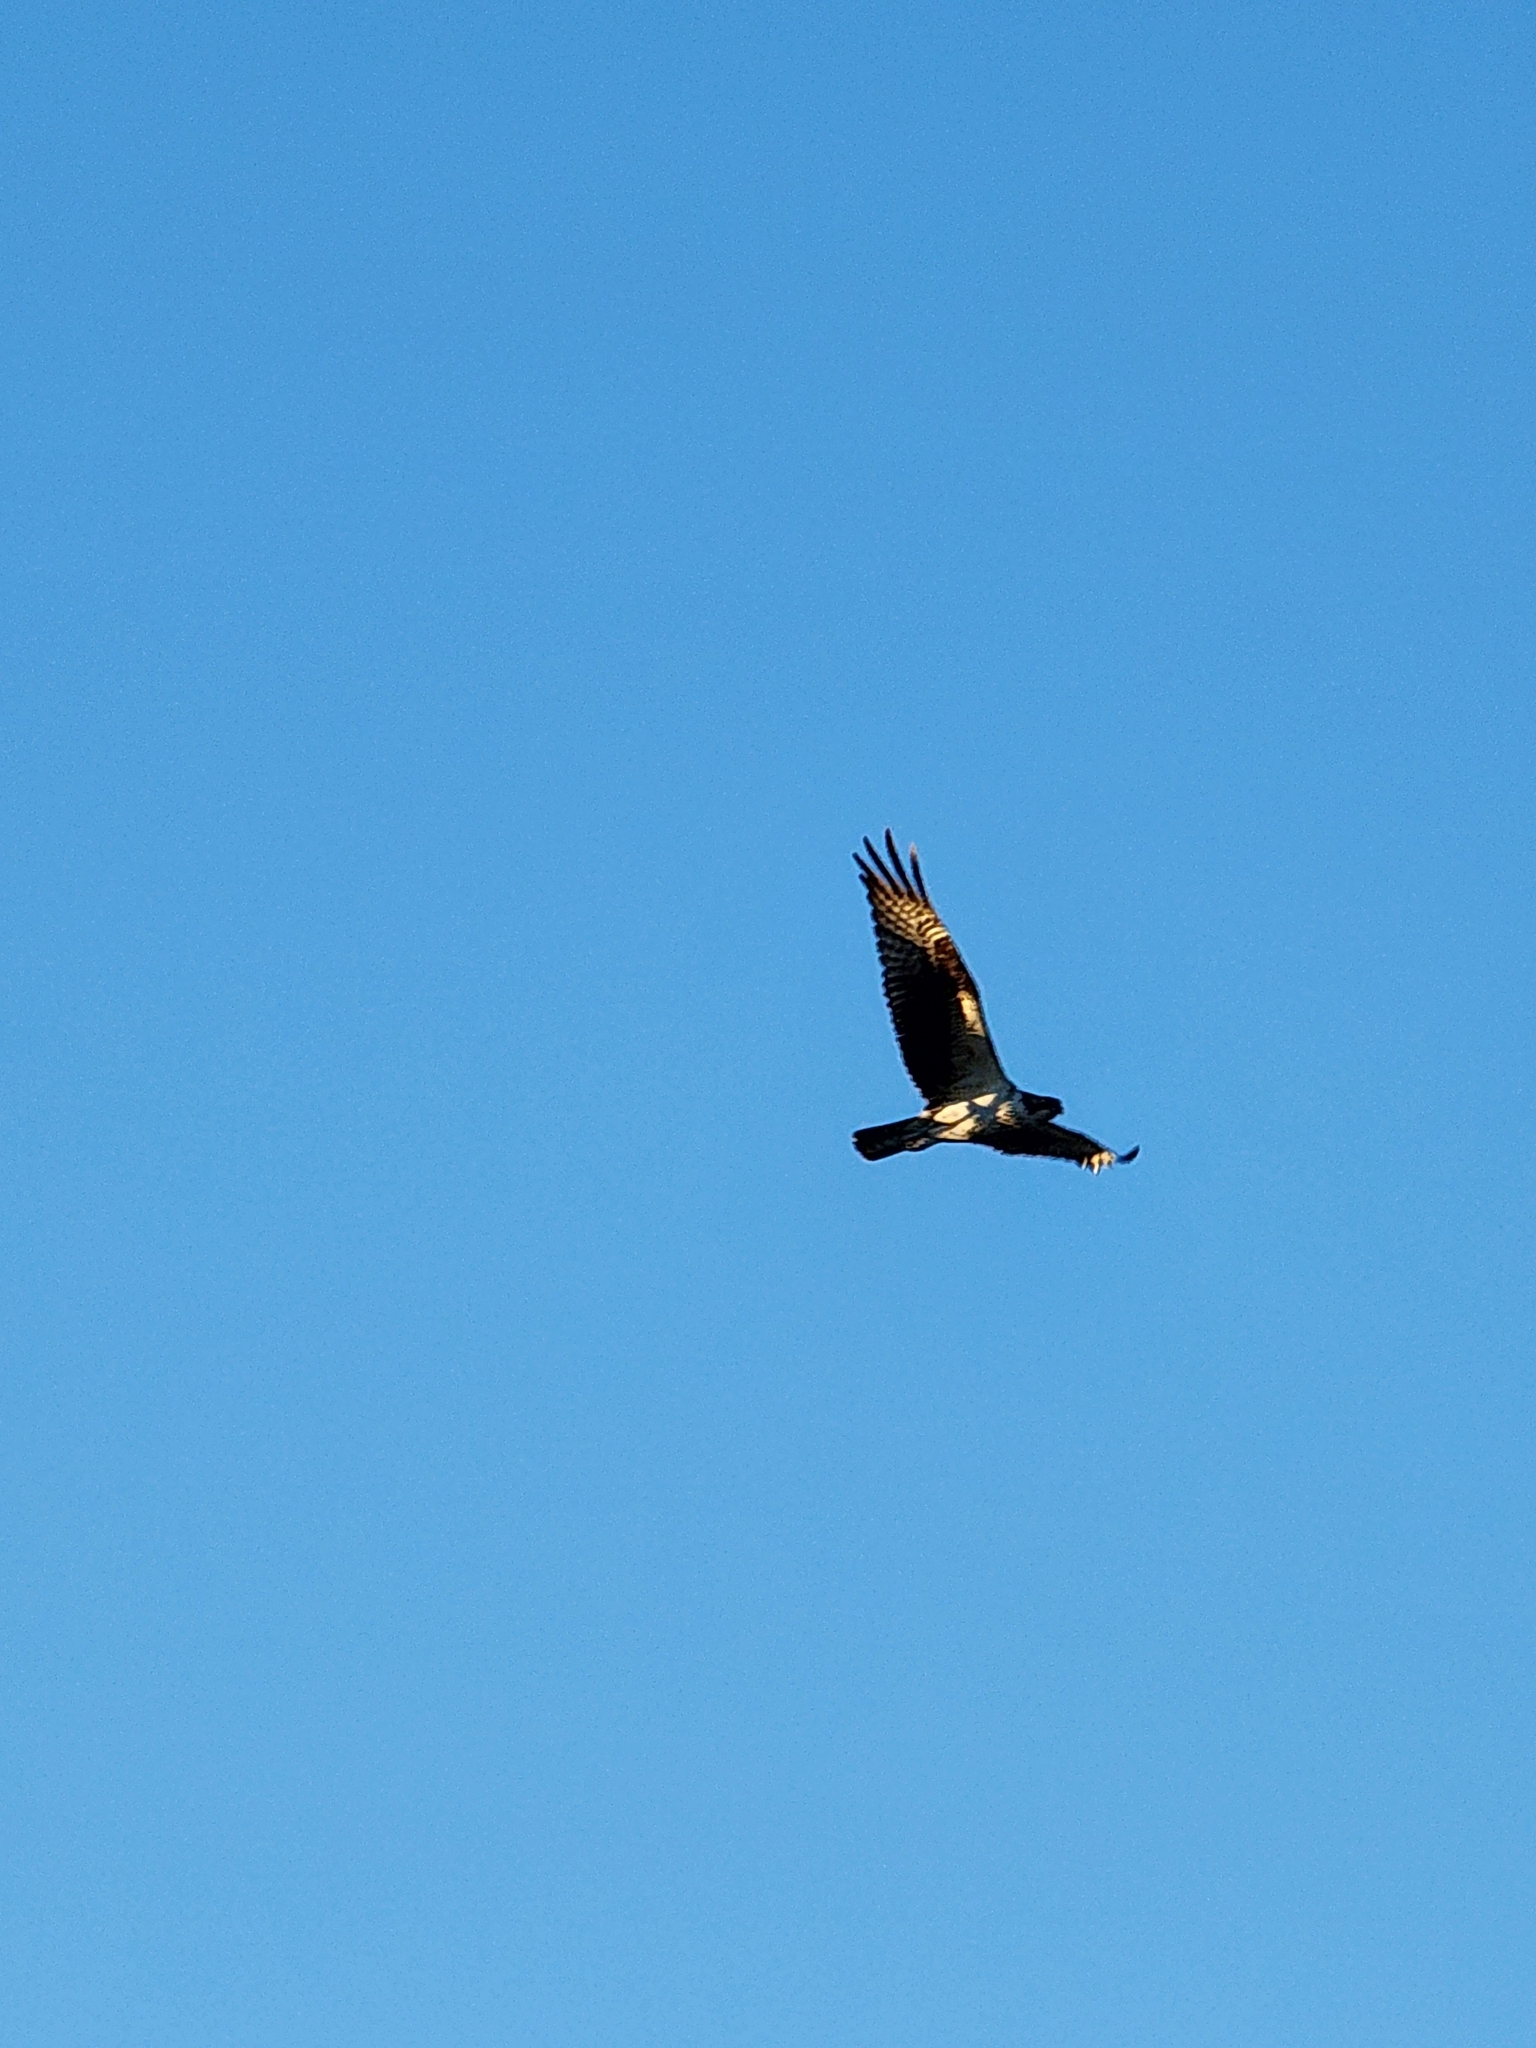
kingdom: Animalia
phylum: Chordata
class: Aves
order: Accipitriformes
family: Pandionidae
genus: Pandion
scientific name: Pandion haliaetus
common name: Osprey
